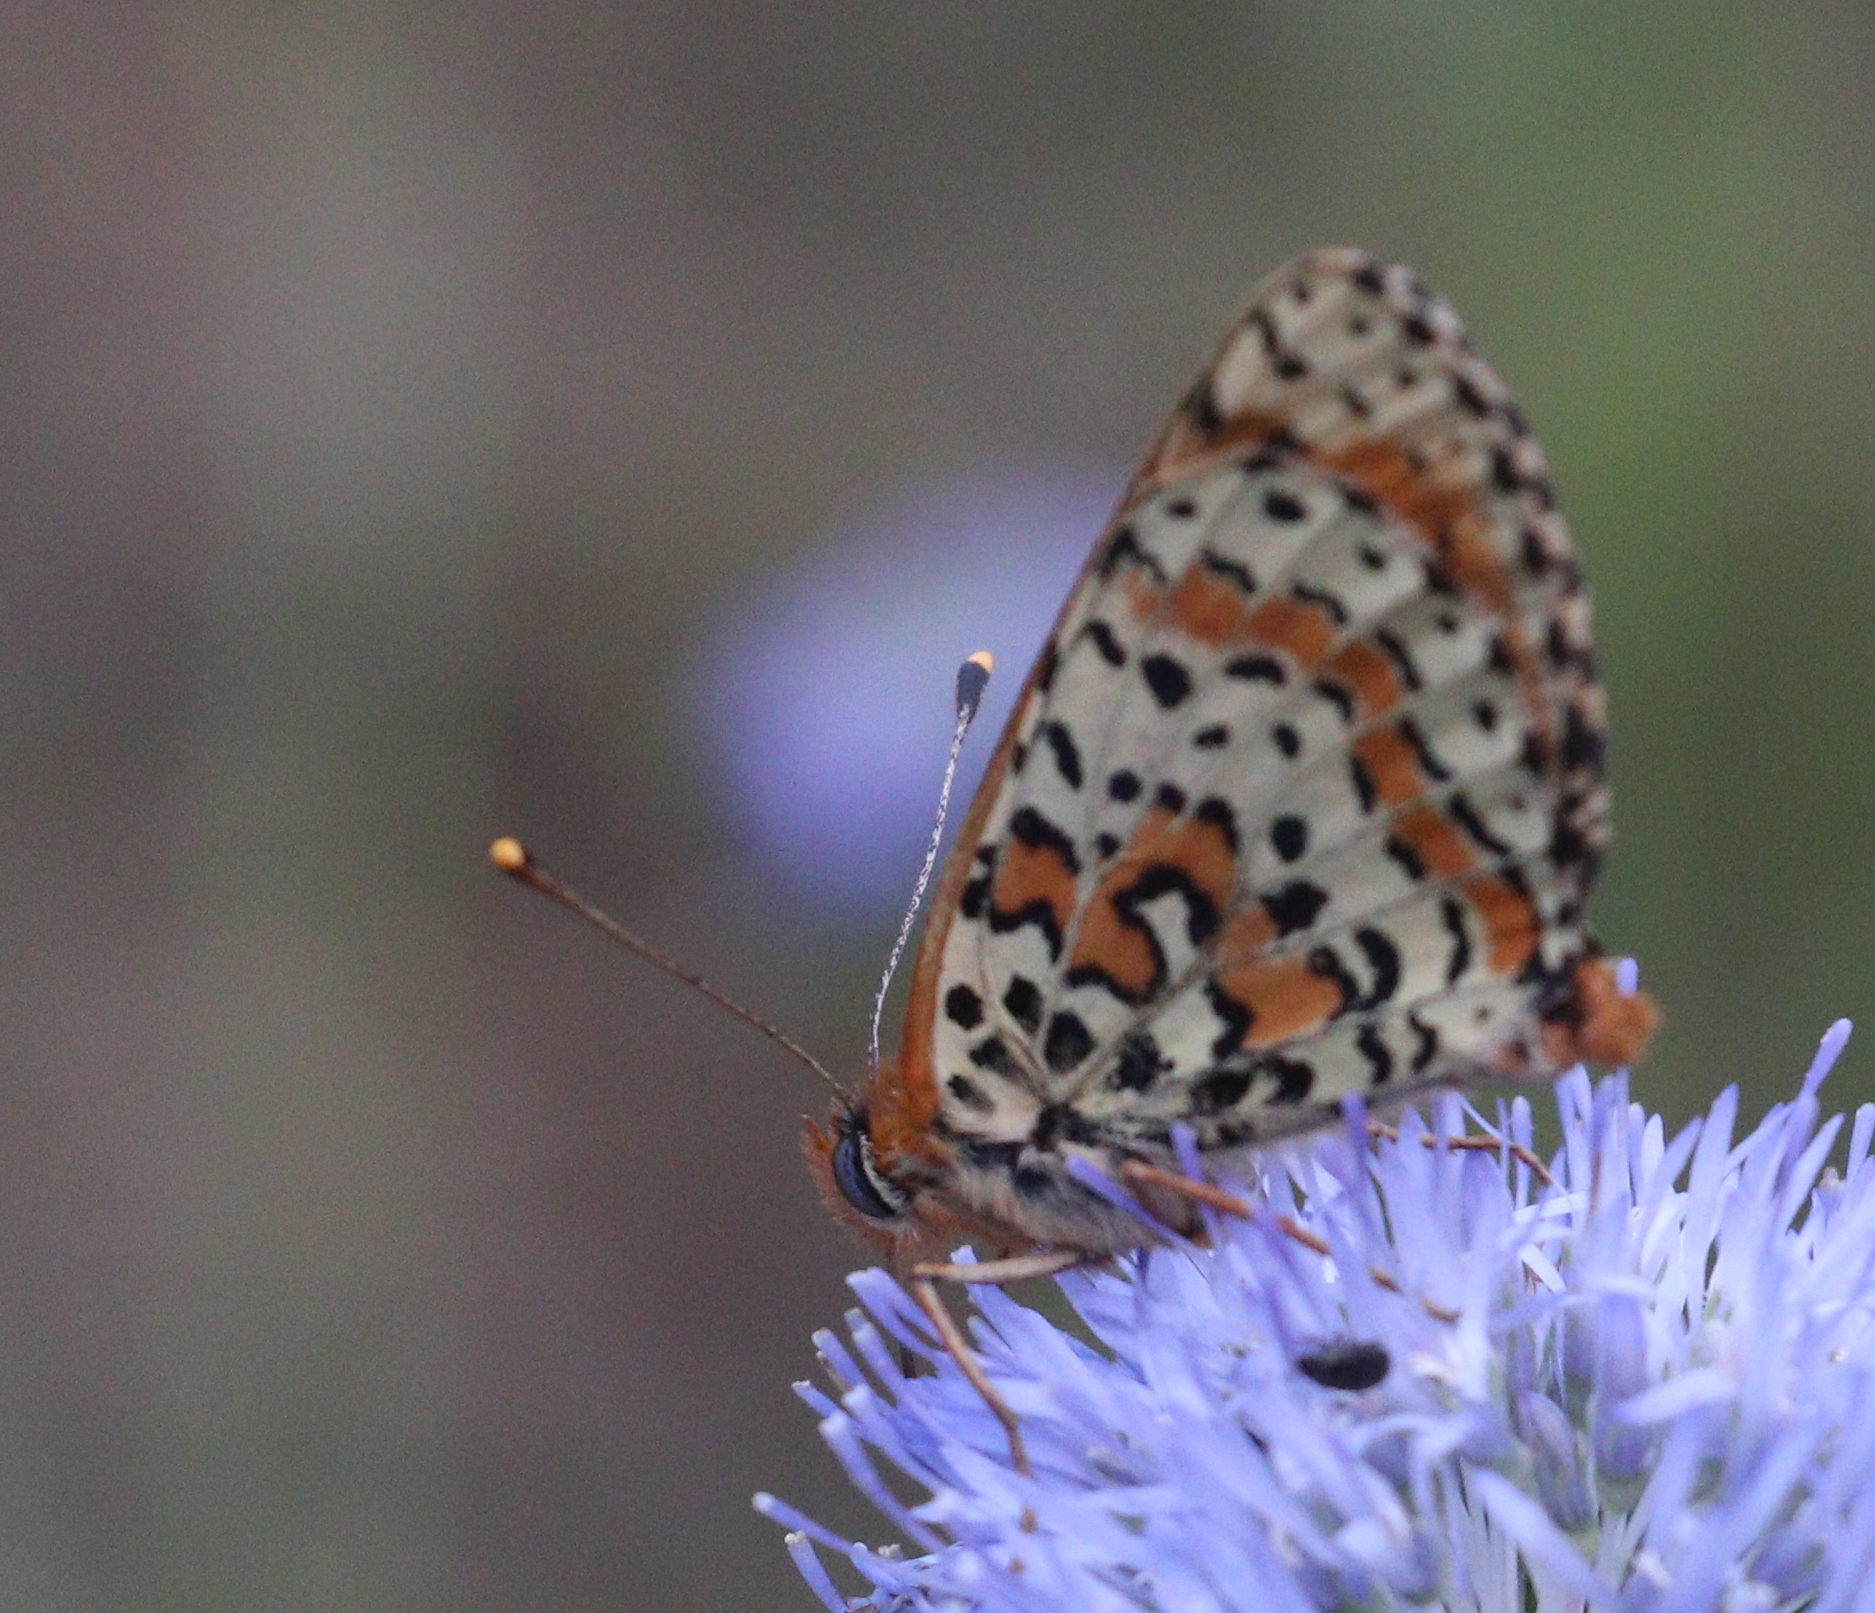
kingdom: Animalia
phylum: Arthropoda
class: Insecta
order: Lepidoptera
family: Nymphalidae
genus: Melitaea
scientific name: Melitaea didyma
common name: Spotted fritillary
